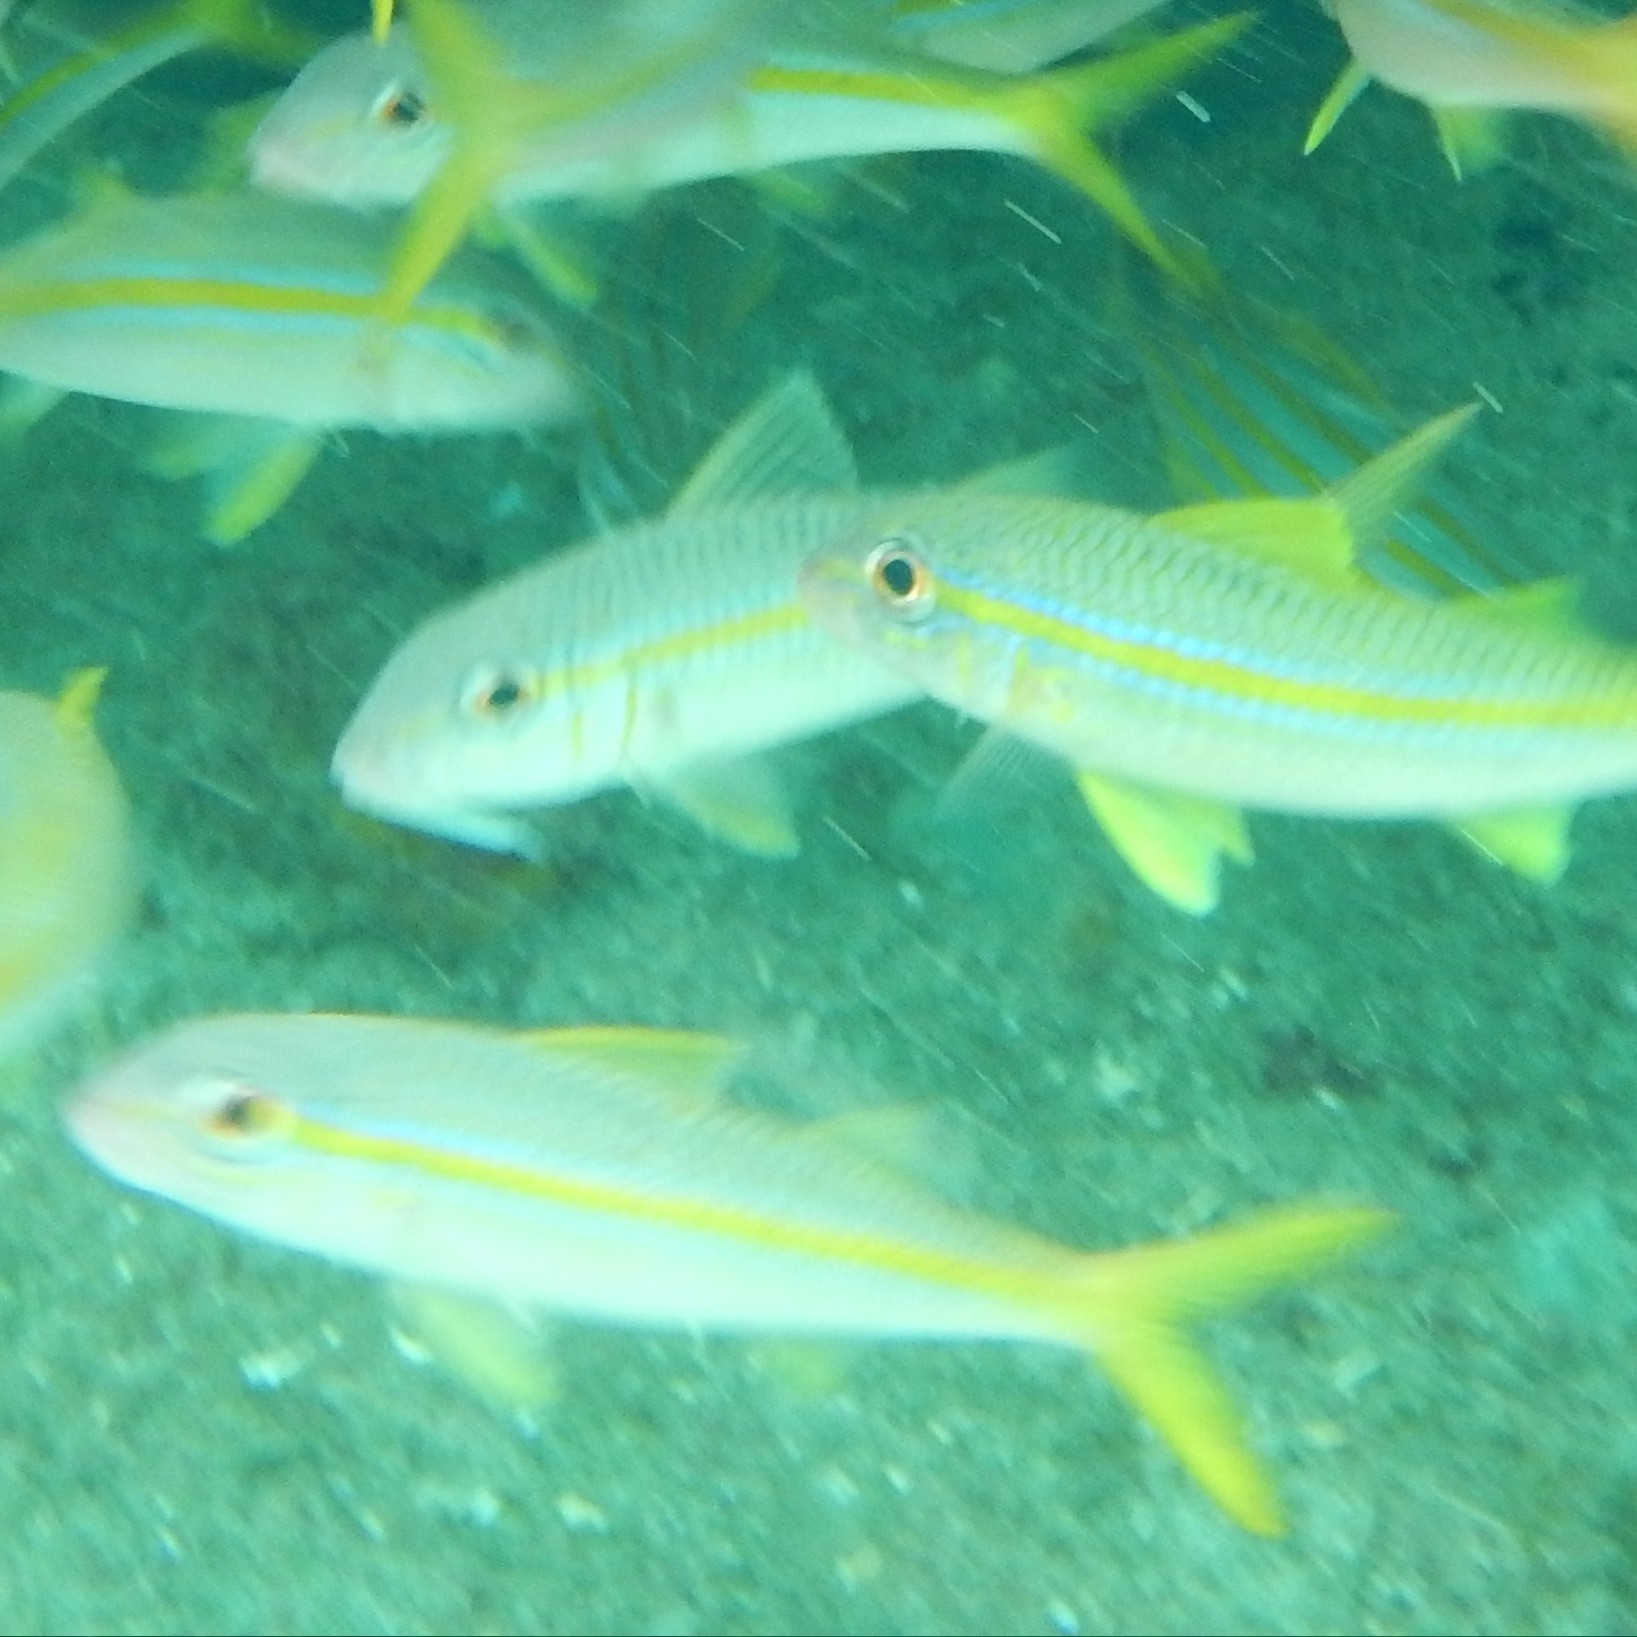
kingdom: Animalia
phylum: Chordata
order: Perciformes
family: Mullidae
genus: Mulloidichthys
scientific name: Mulloidichthys martinicus
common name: Yellow goatfish
